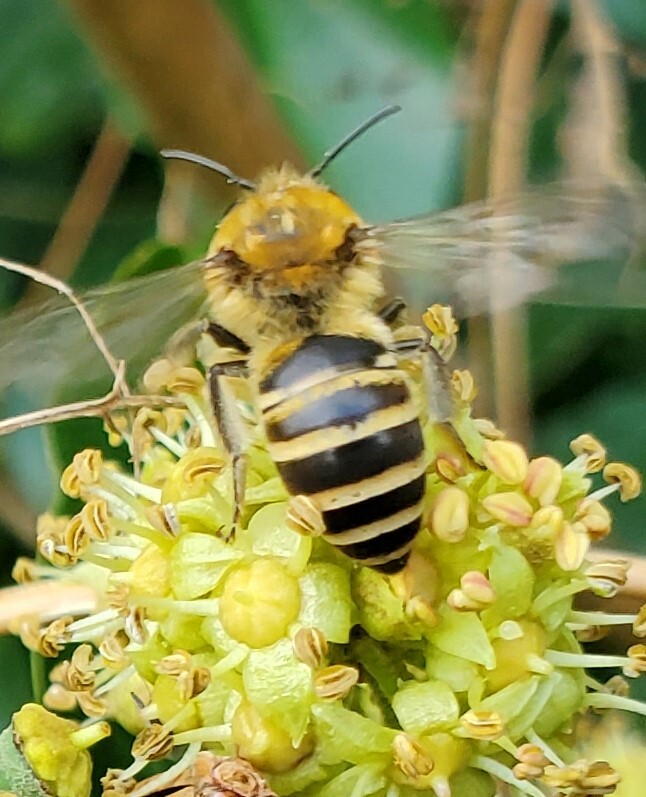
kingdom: Animalia
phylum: Arthropoda
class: Insecta
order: Hymenoptera
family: Colletidae
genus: Colletes
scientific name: Colletes hederae
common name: Ivy bee
